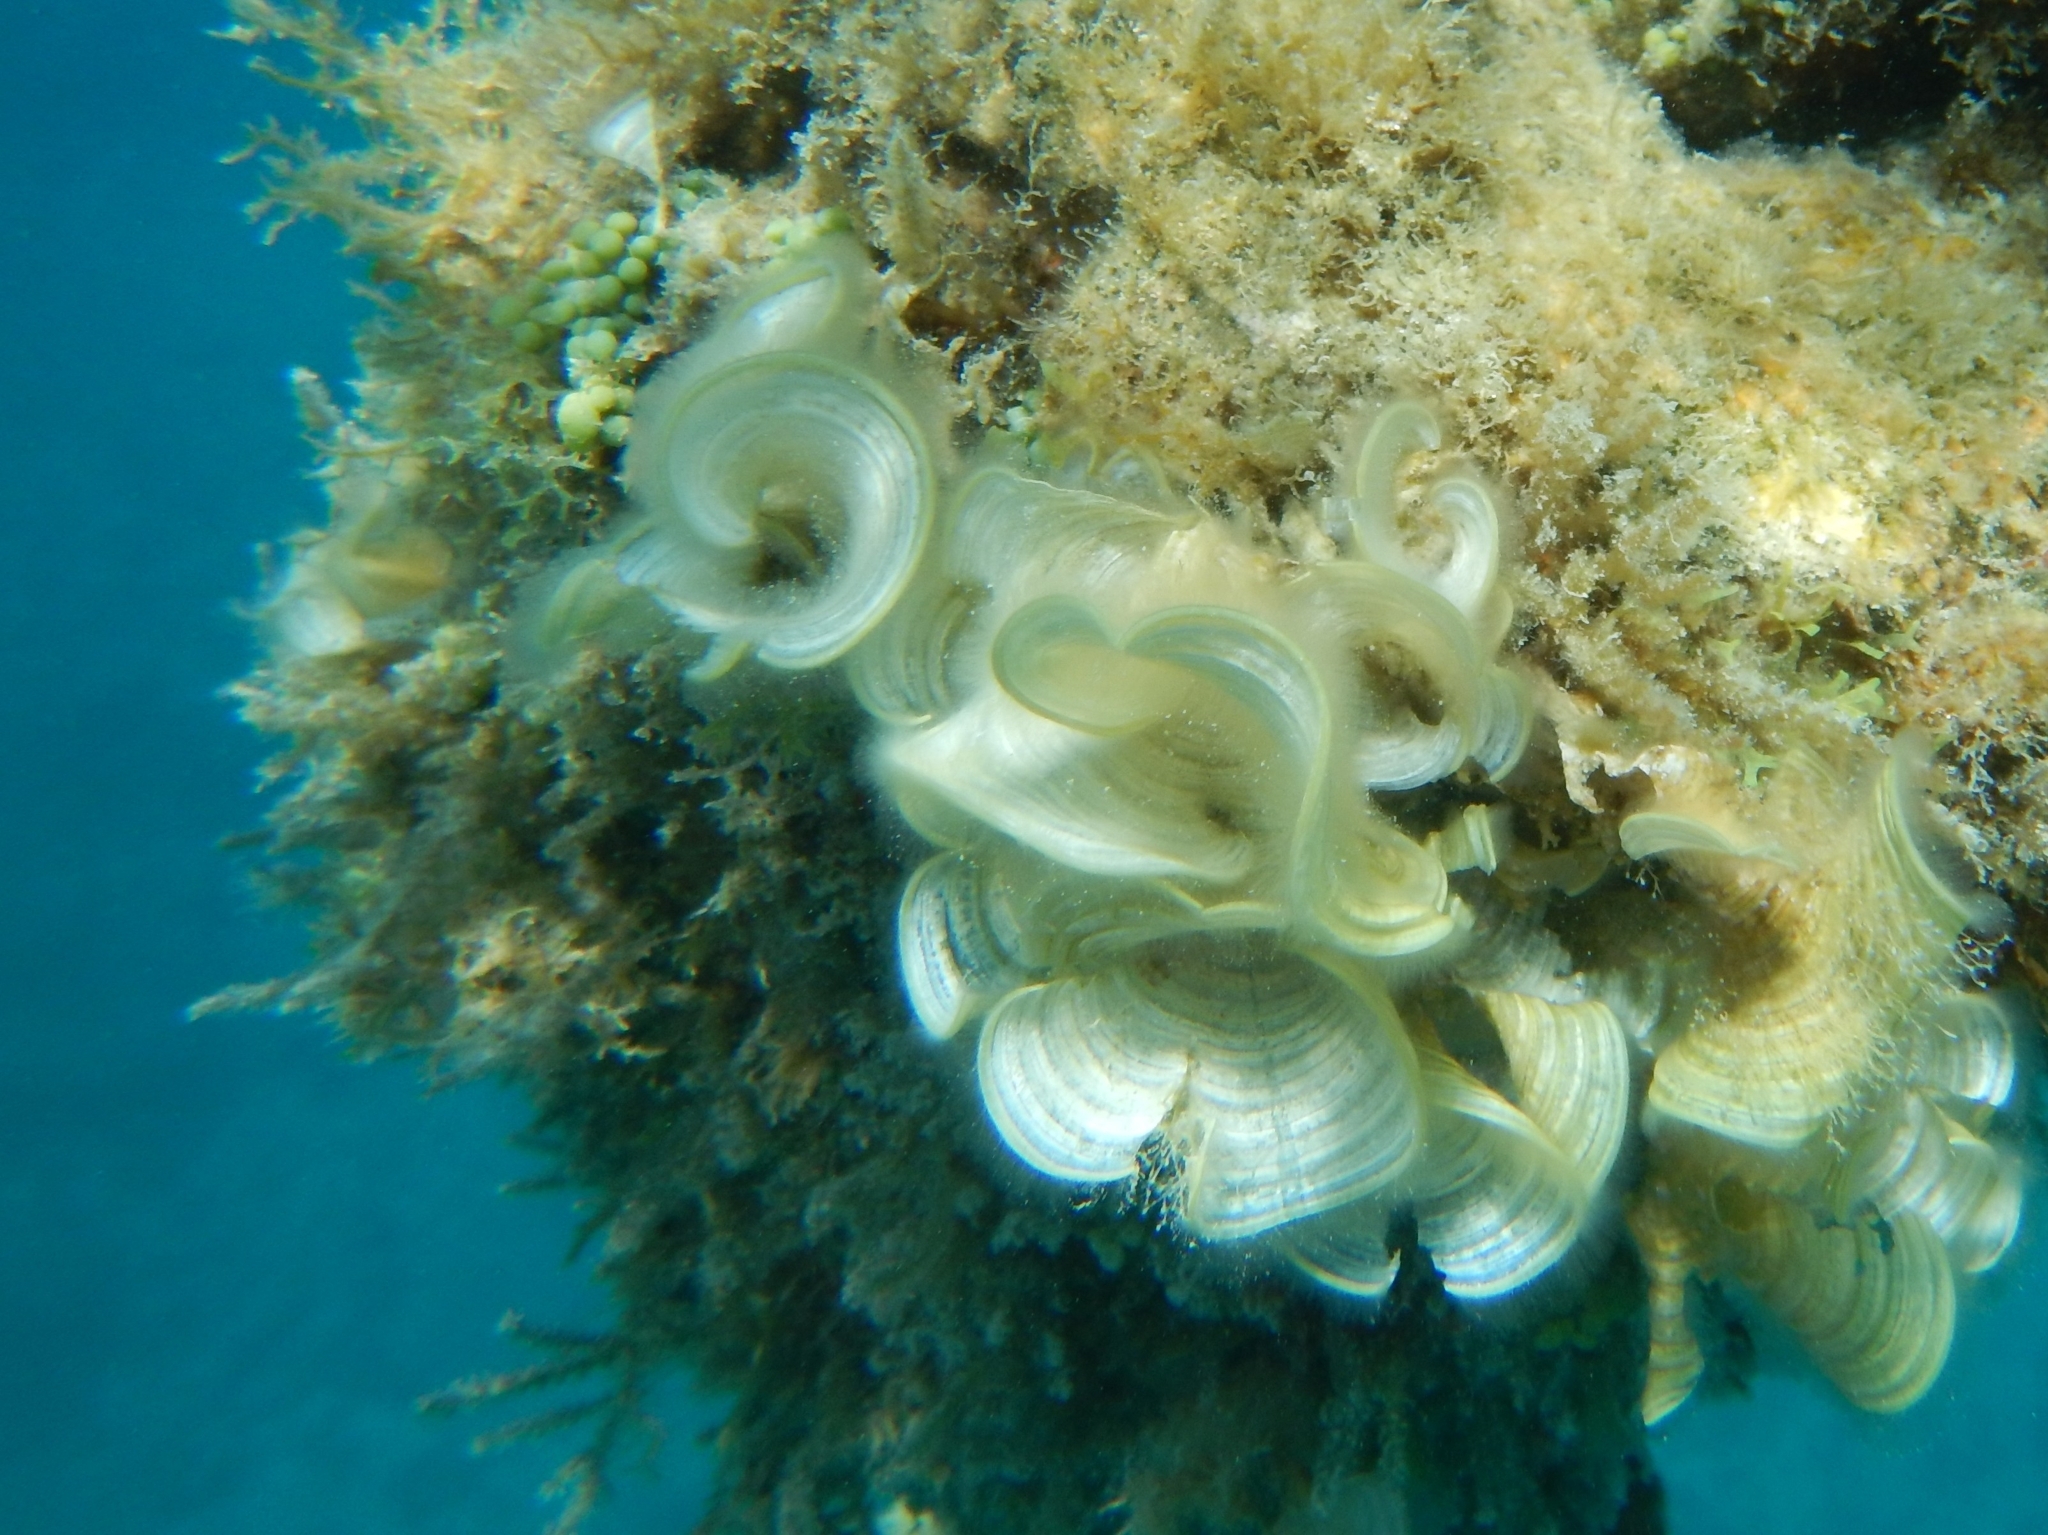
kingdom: Chromista
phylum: Ochrophyta
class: Phaeophyceae
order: Dictyotales
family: Dictyotaceae
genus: Padina
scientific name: Padina sanctae-crucis
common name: White scroll algae
